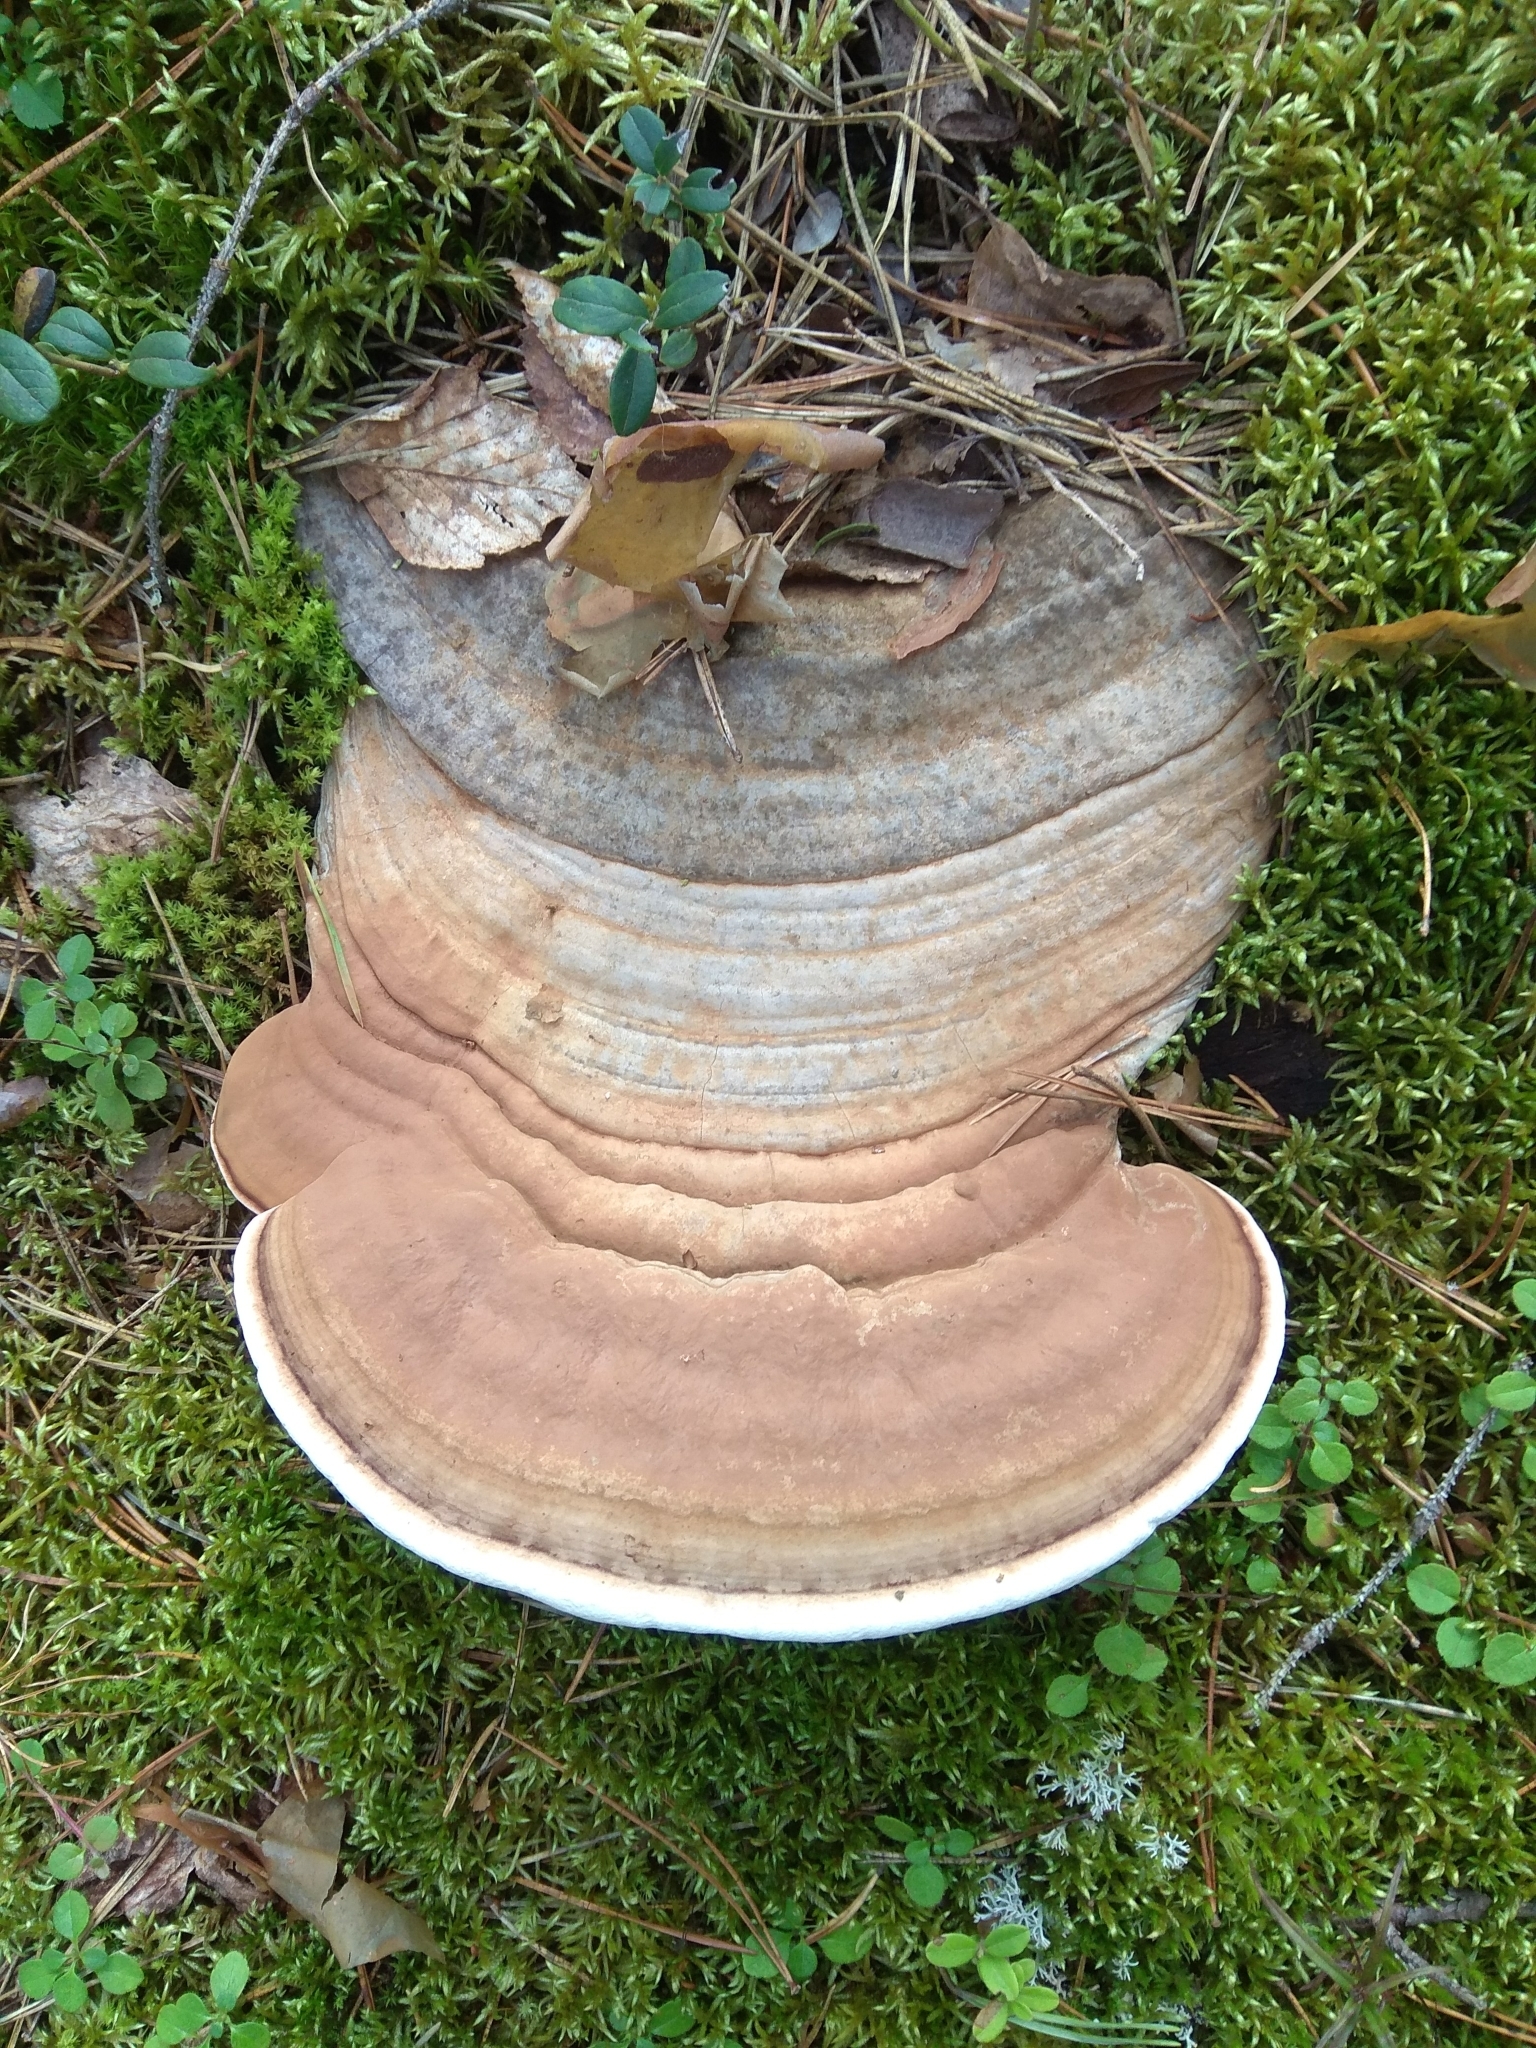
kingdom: Fungi
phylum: Basidiomycota
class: Agaricomycetes
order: Polyporales
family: Polyporaceae
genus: Ganoderma
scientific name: Ganoderma applanatum
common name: Artist's bracket
